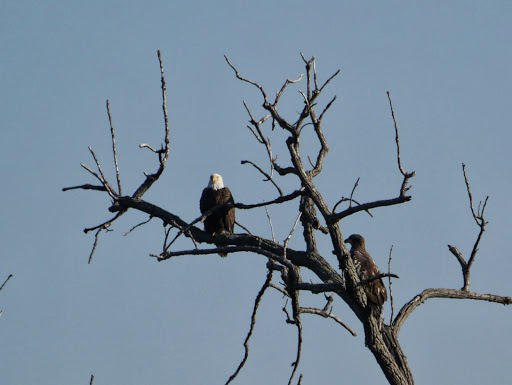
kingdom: Animalia
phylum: Chordata
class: Aves
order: Accipitriformes
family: Accipitridae
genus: Haliaeetus
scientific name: Haliaeetus leucocephalus
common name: Bald eagle
